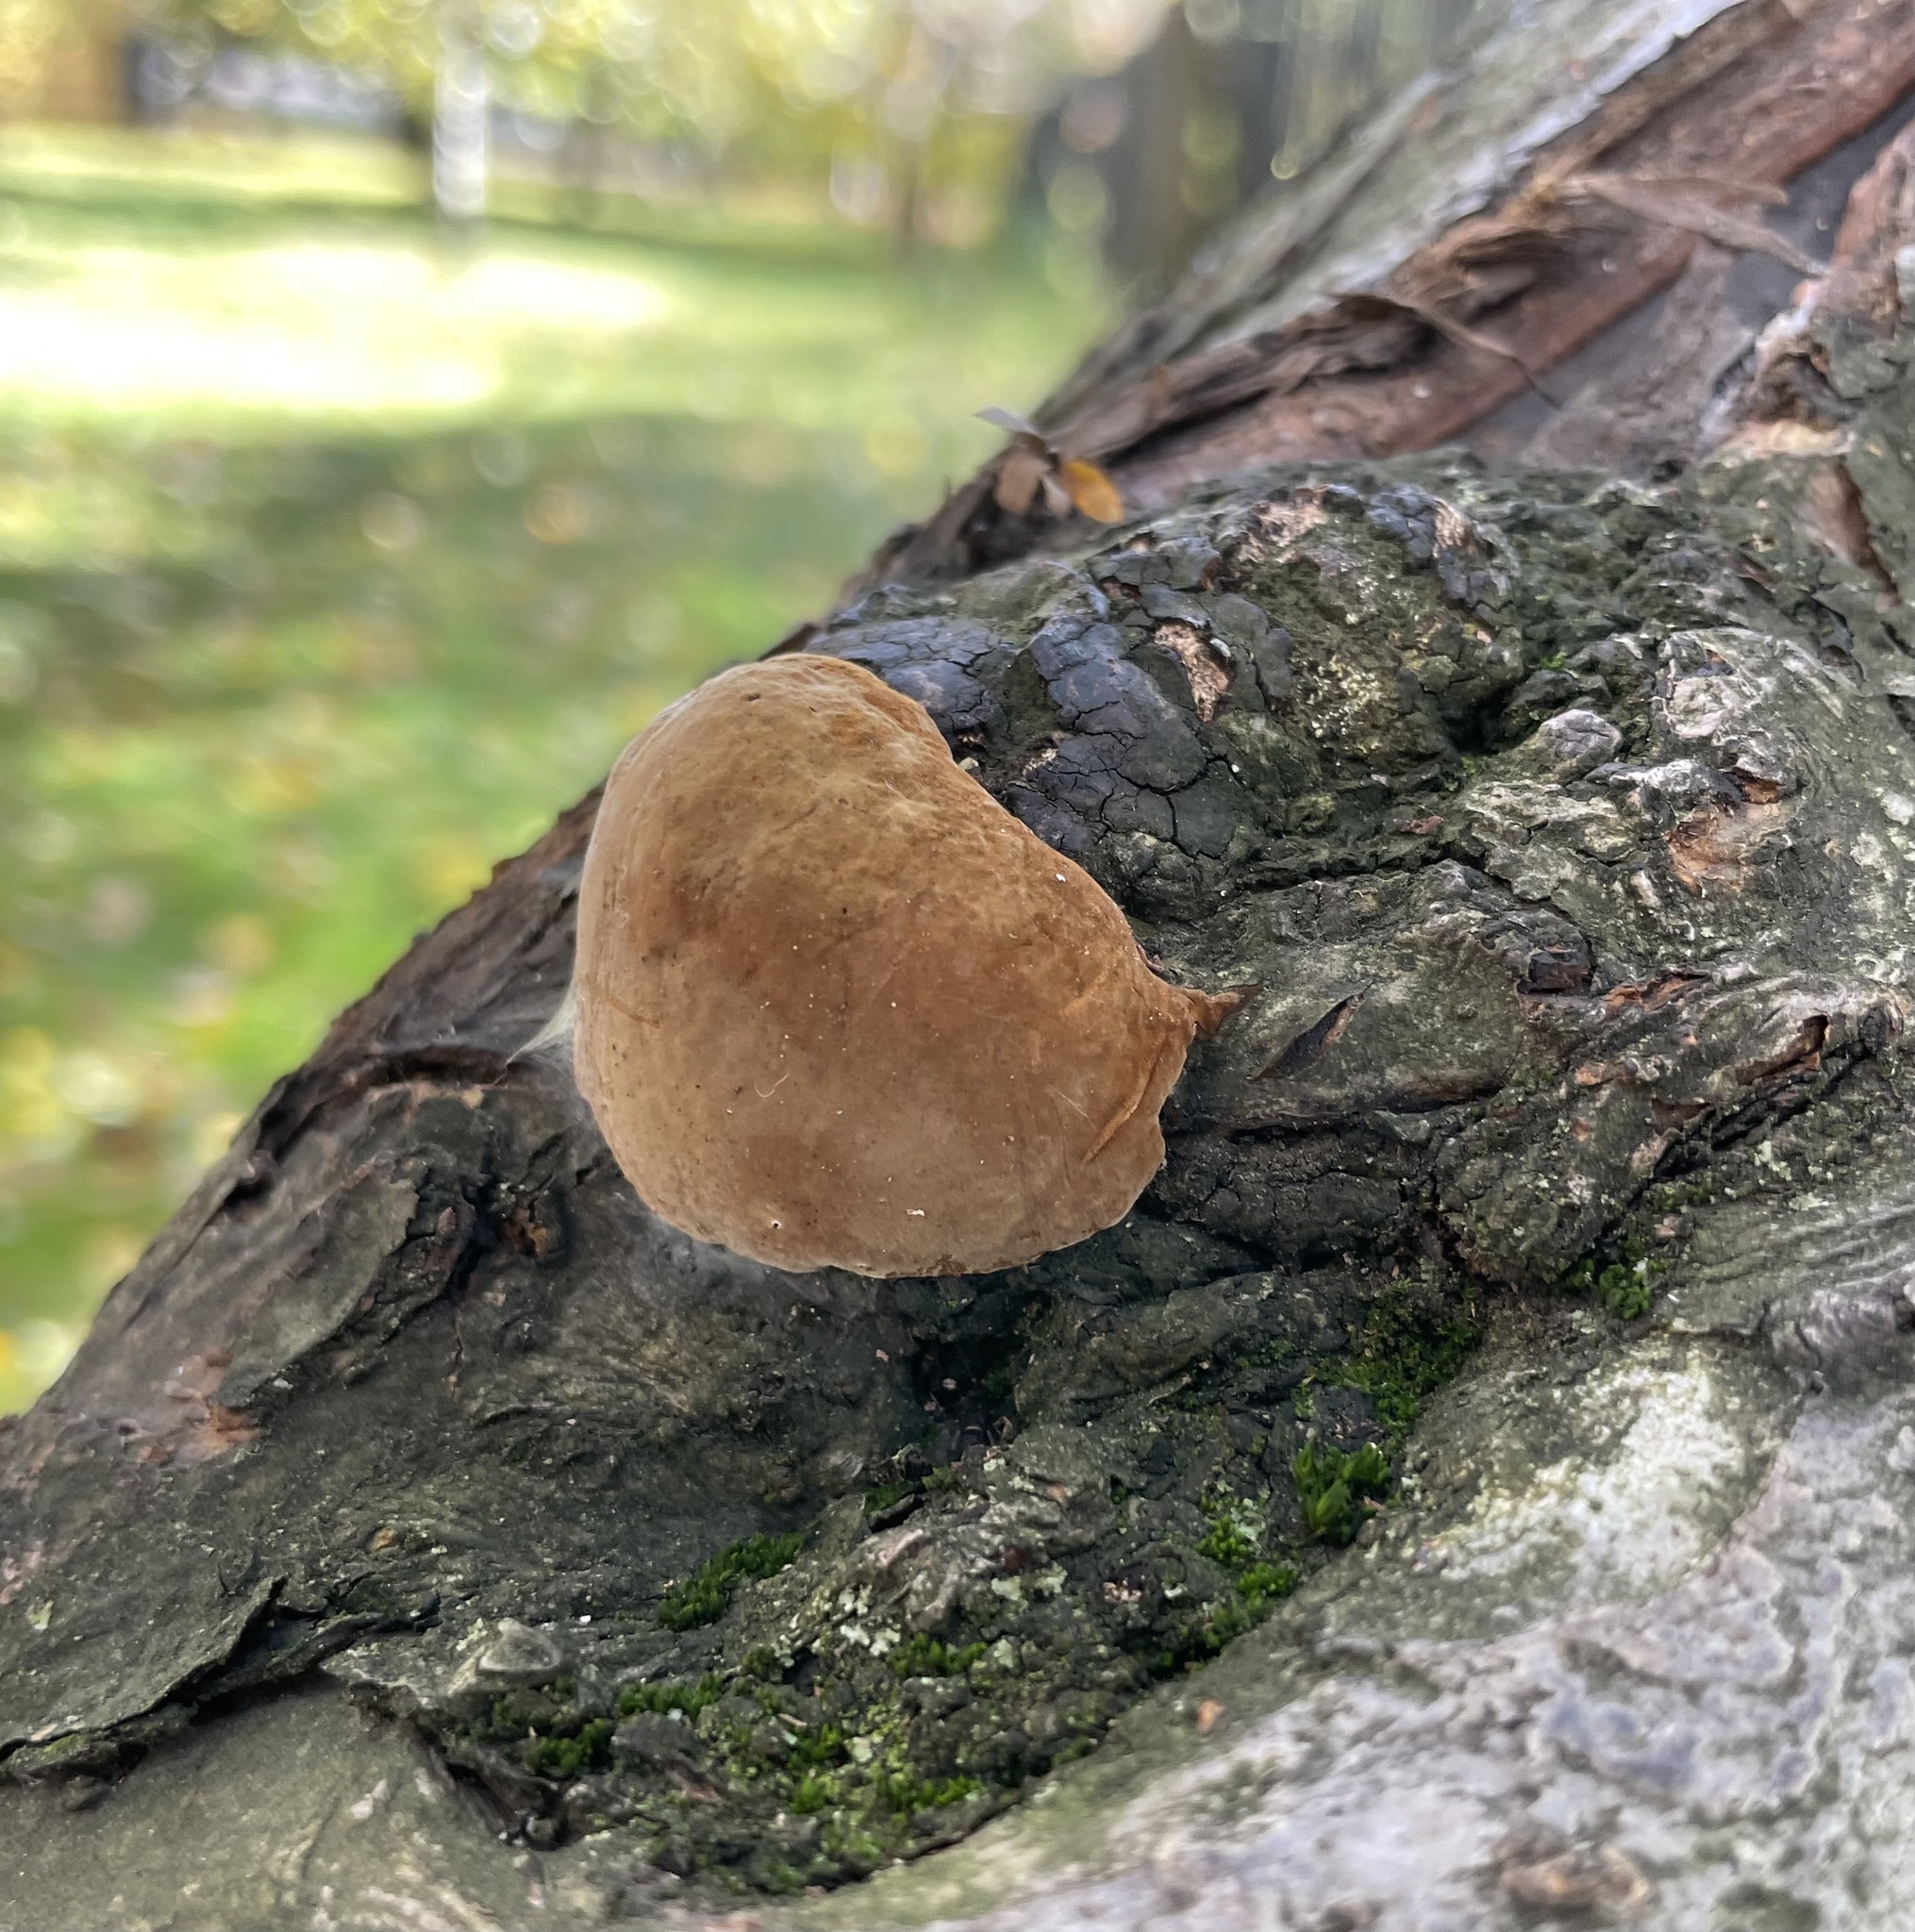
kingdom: Fungi
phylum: Basidiomycota
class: Agaricomycetes
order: Hymenochaetales
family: Hymenochaetaceae
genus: Fomitiporia
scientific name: Fomitiporia robusta
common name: Robust bracket
